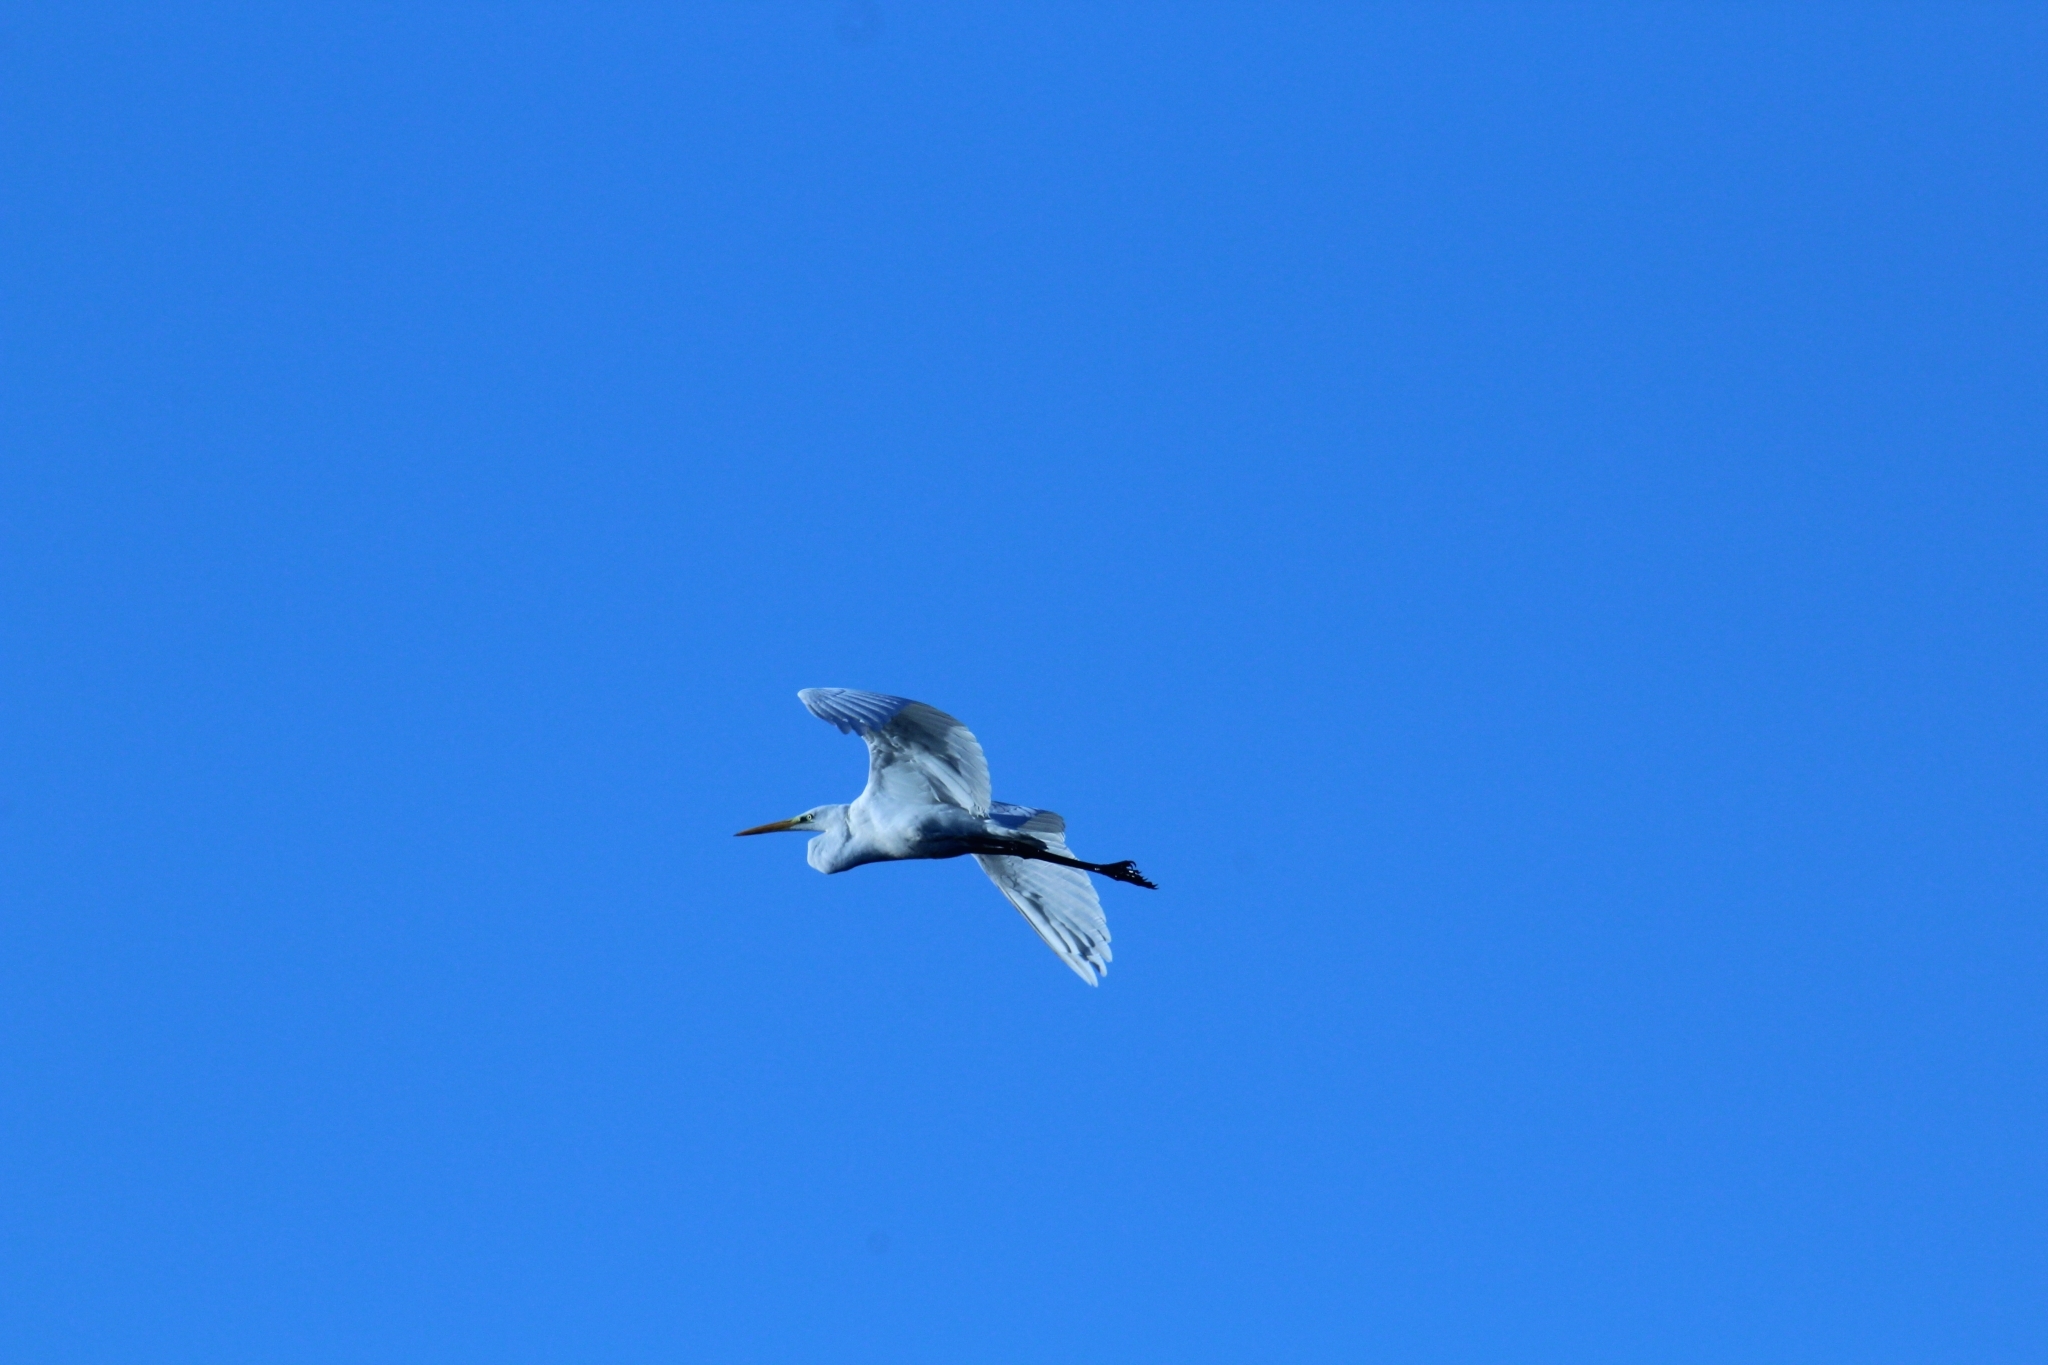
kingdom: Animalia
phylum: Chordata
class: Aves
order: Pelecaniformes
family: Ardeidae
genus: Ardea
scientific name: Ardea alba
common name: Great egret
